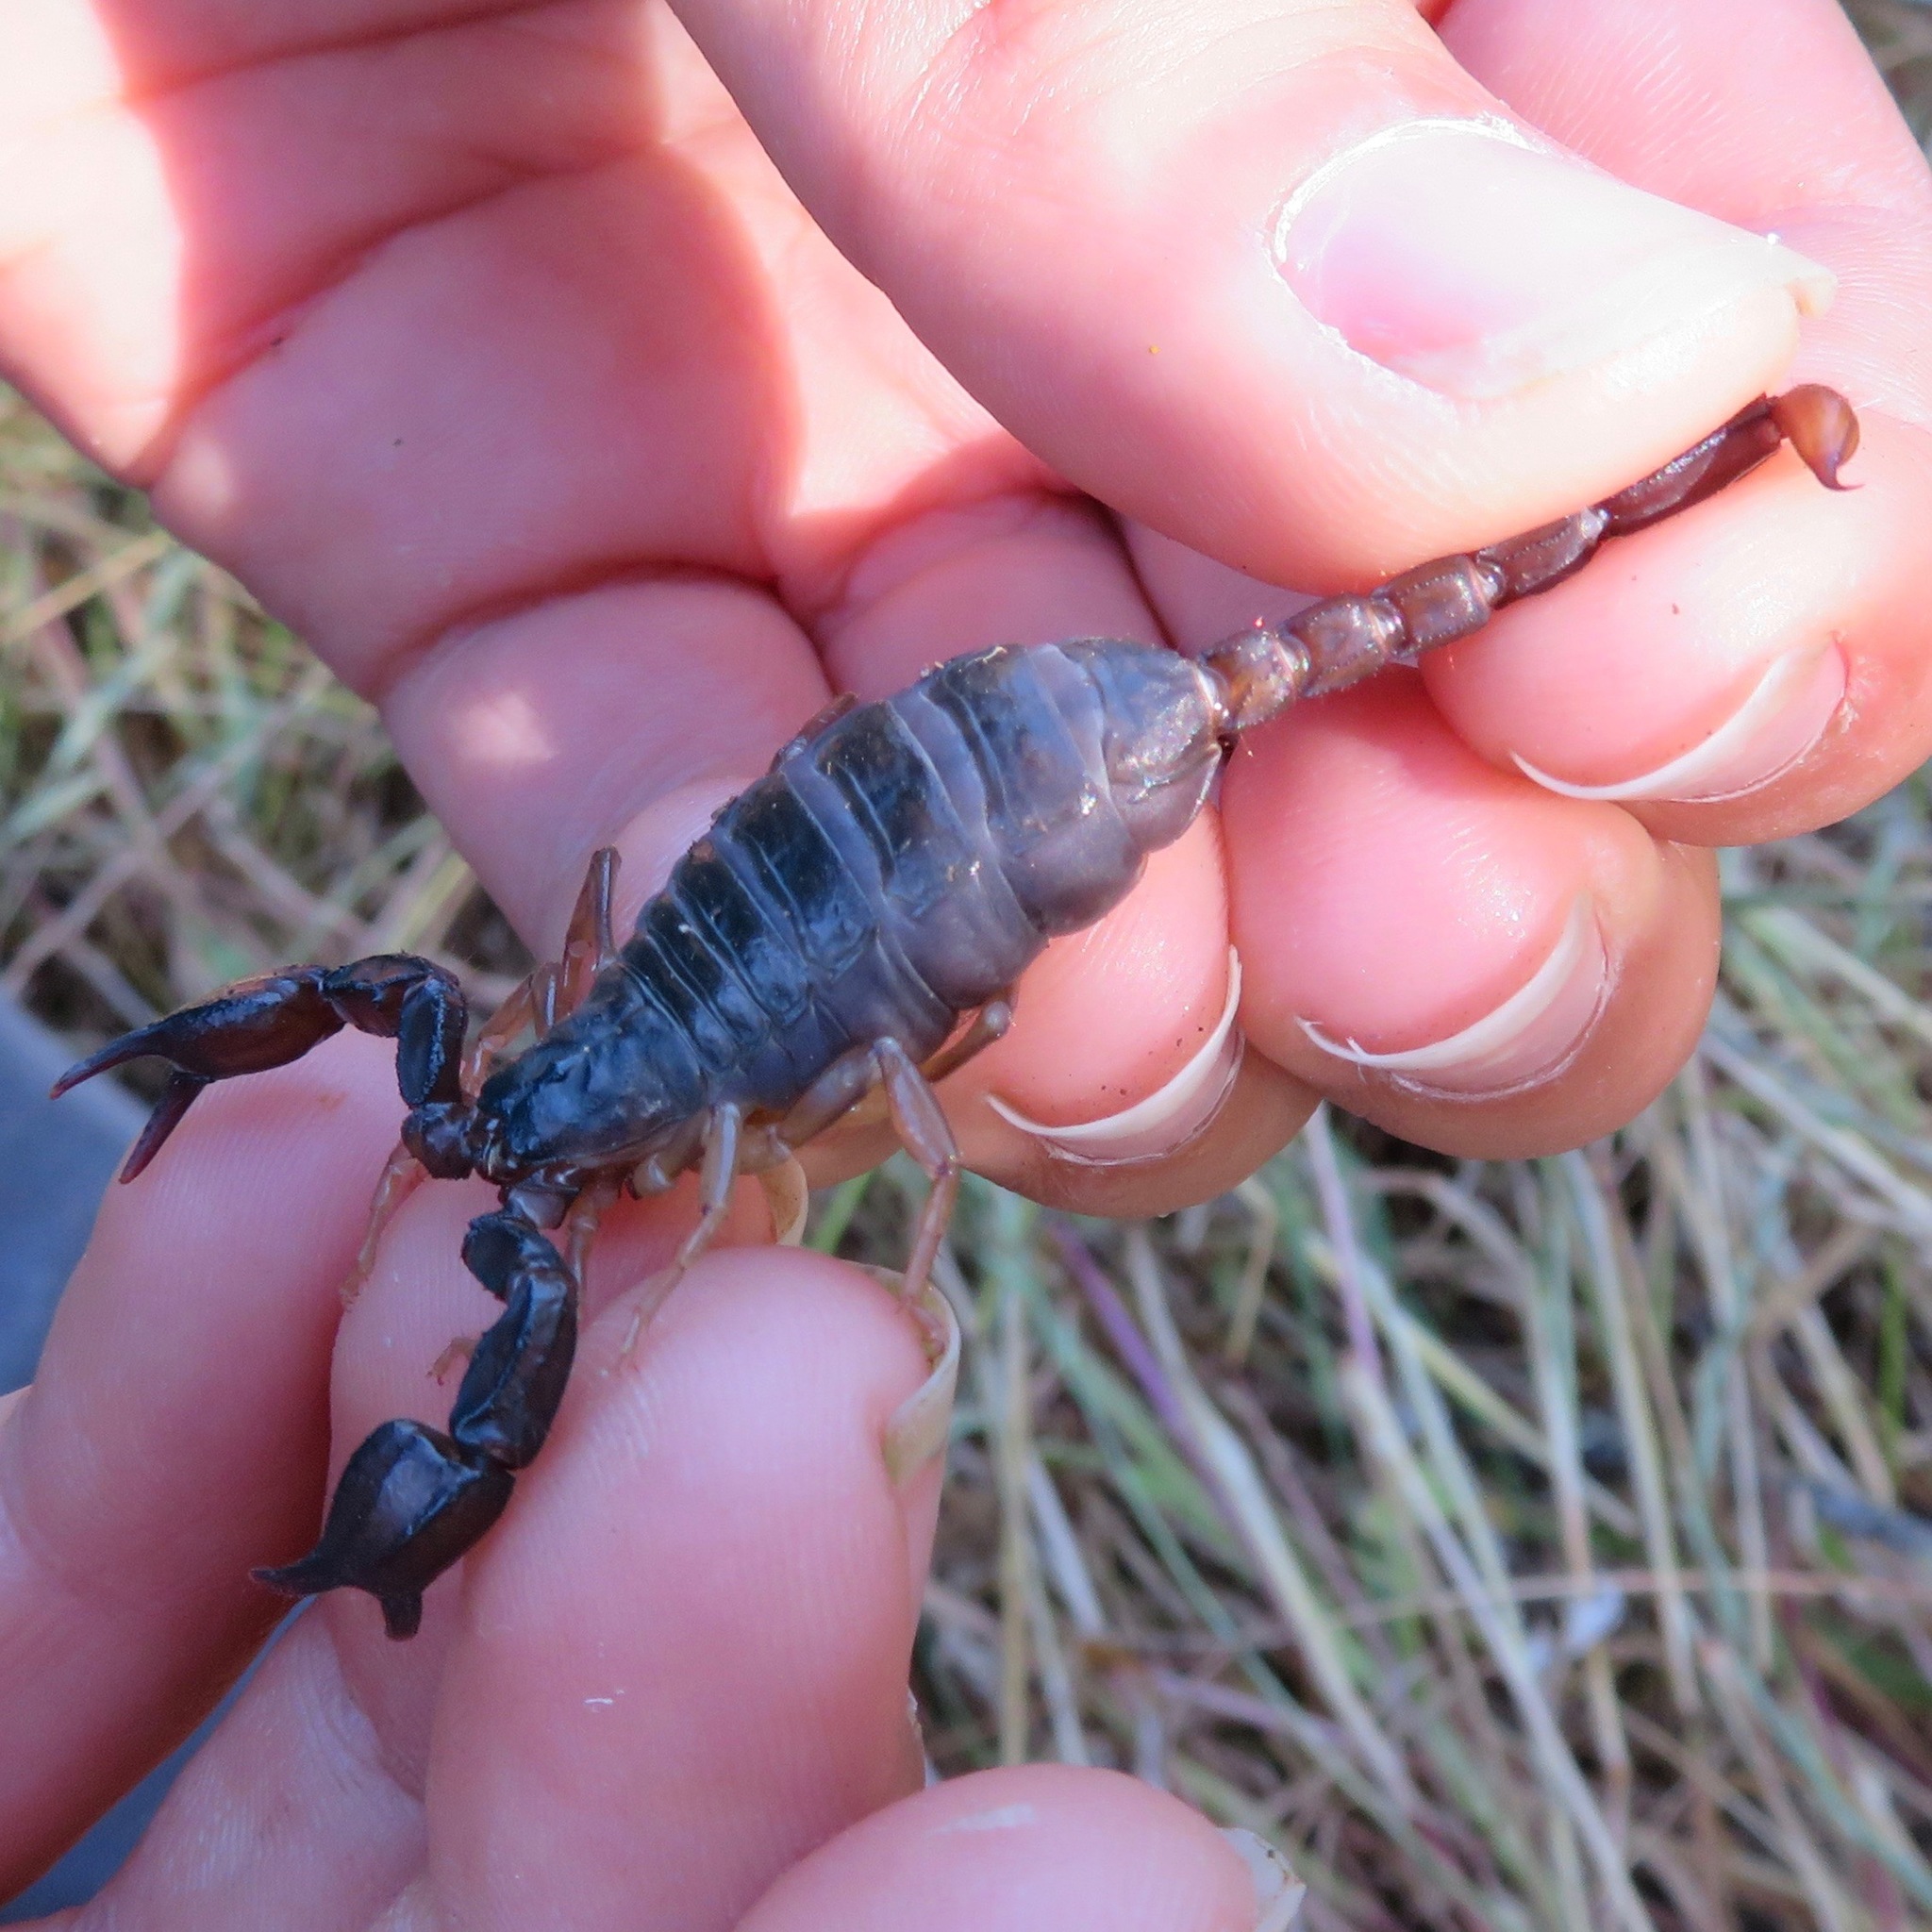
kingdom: Animalia
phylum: Arthropoda
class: Arachnida
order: Scorpiones
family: Chactidae
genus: Uroctonus
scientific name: Uroctonus mordax
